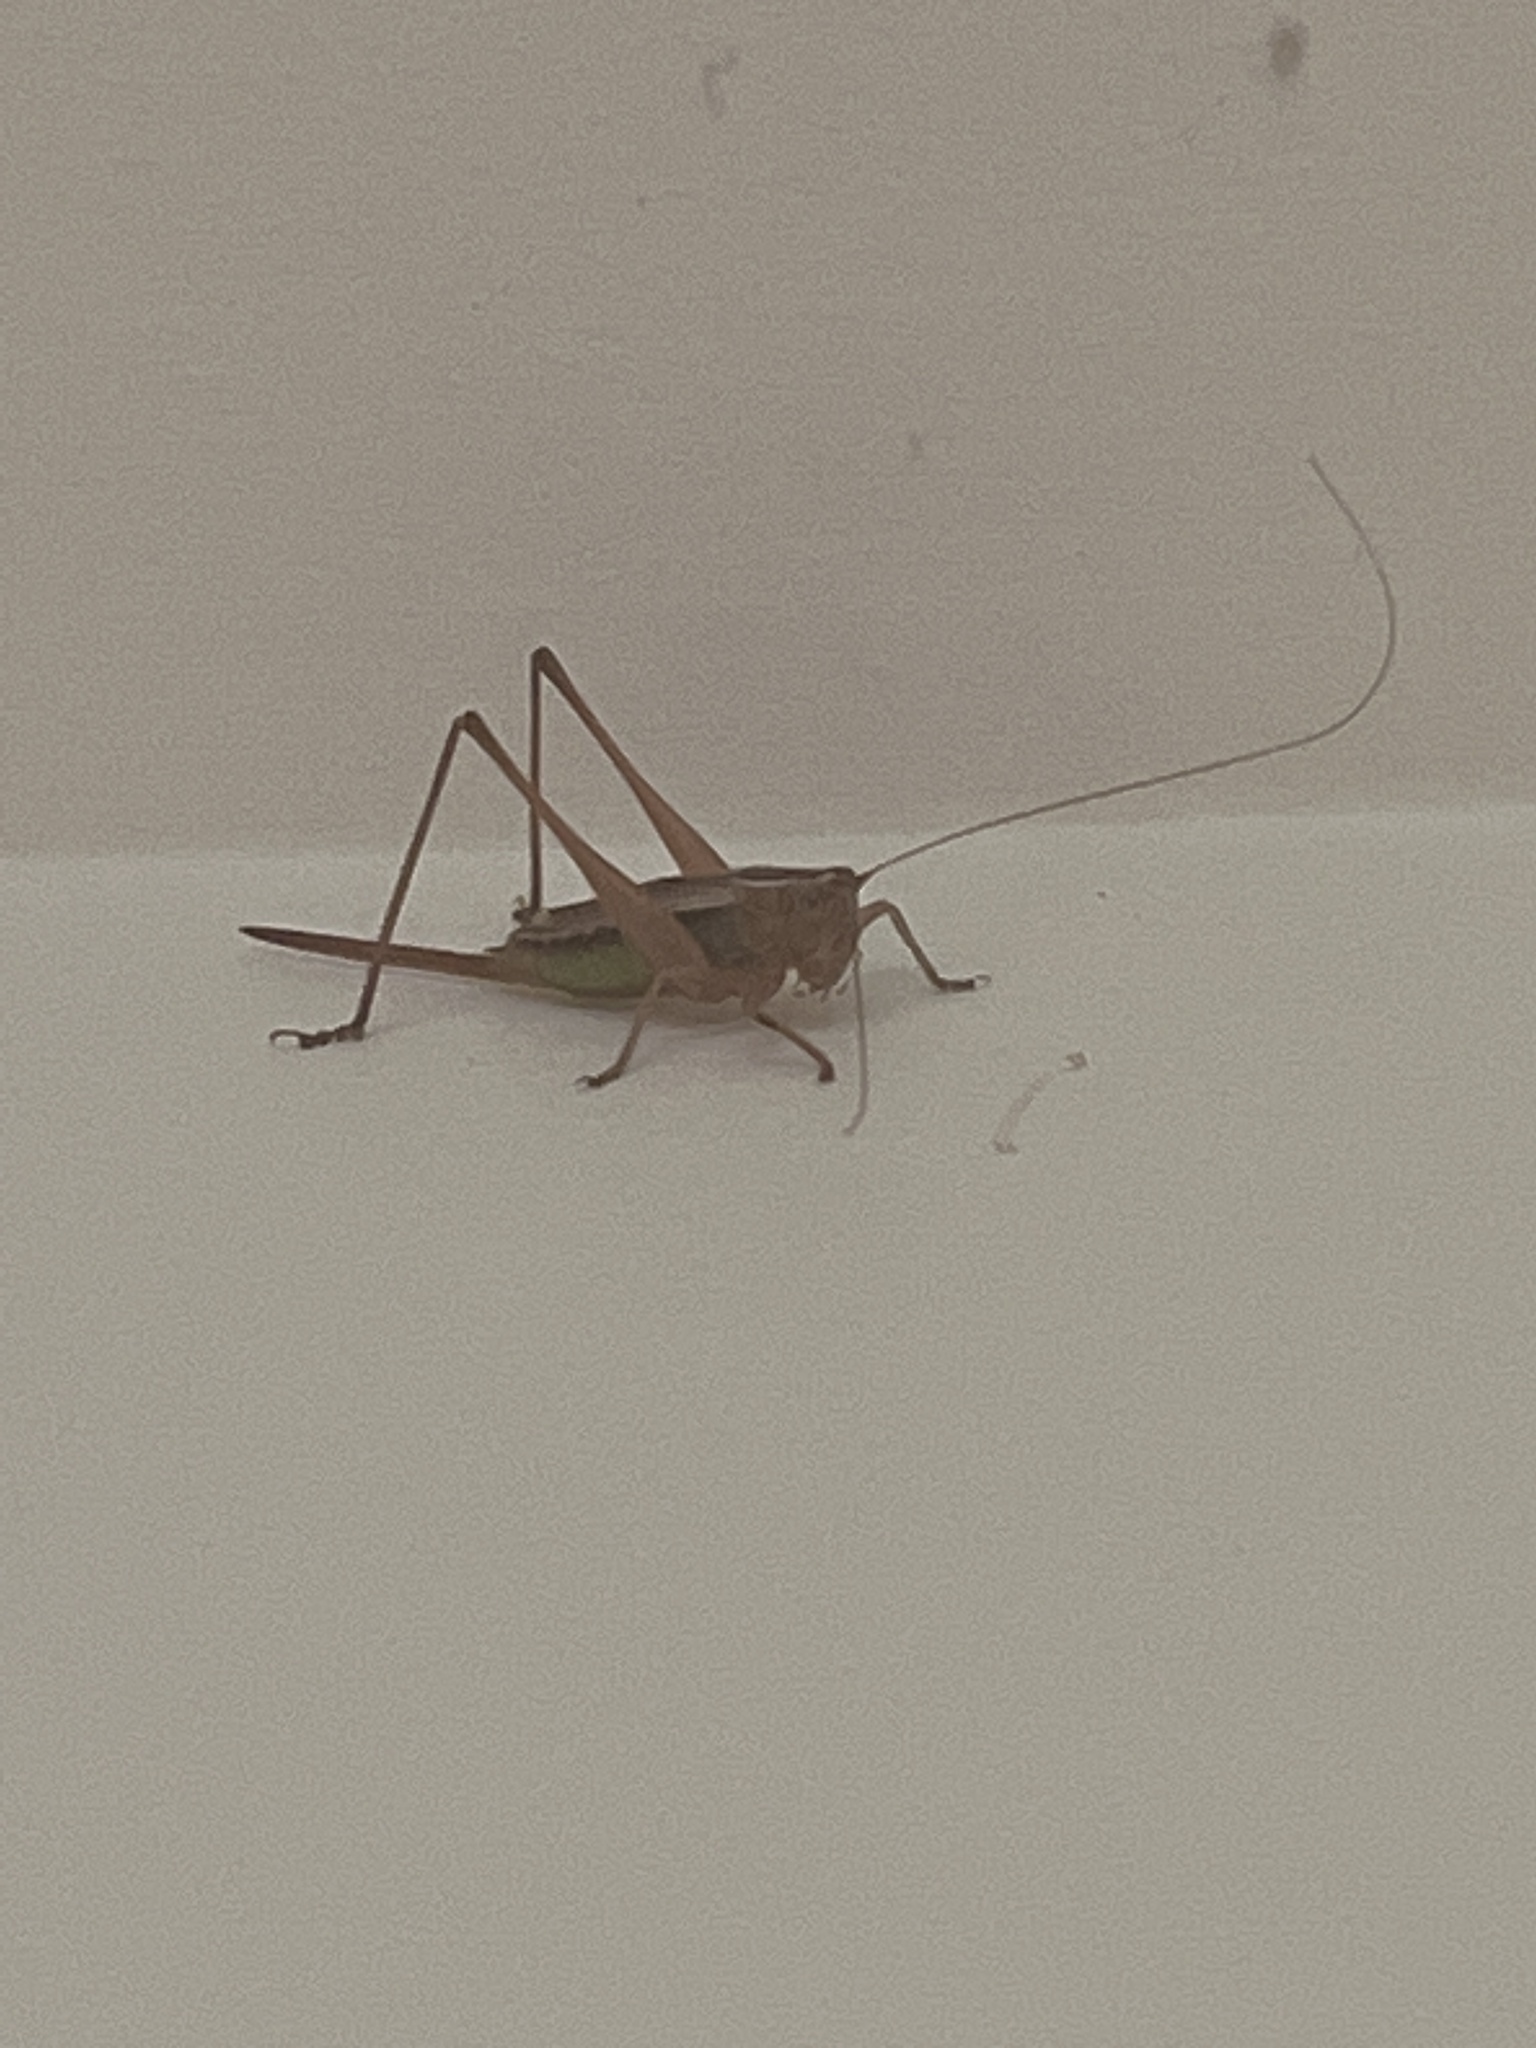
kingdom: Animalia
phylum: Arthropoda
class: Insecta
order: Orthoptera
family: Tettigoniidae
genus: Conocephalus
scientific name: Conocephalus albescens
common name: Whitish meadow katydid
